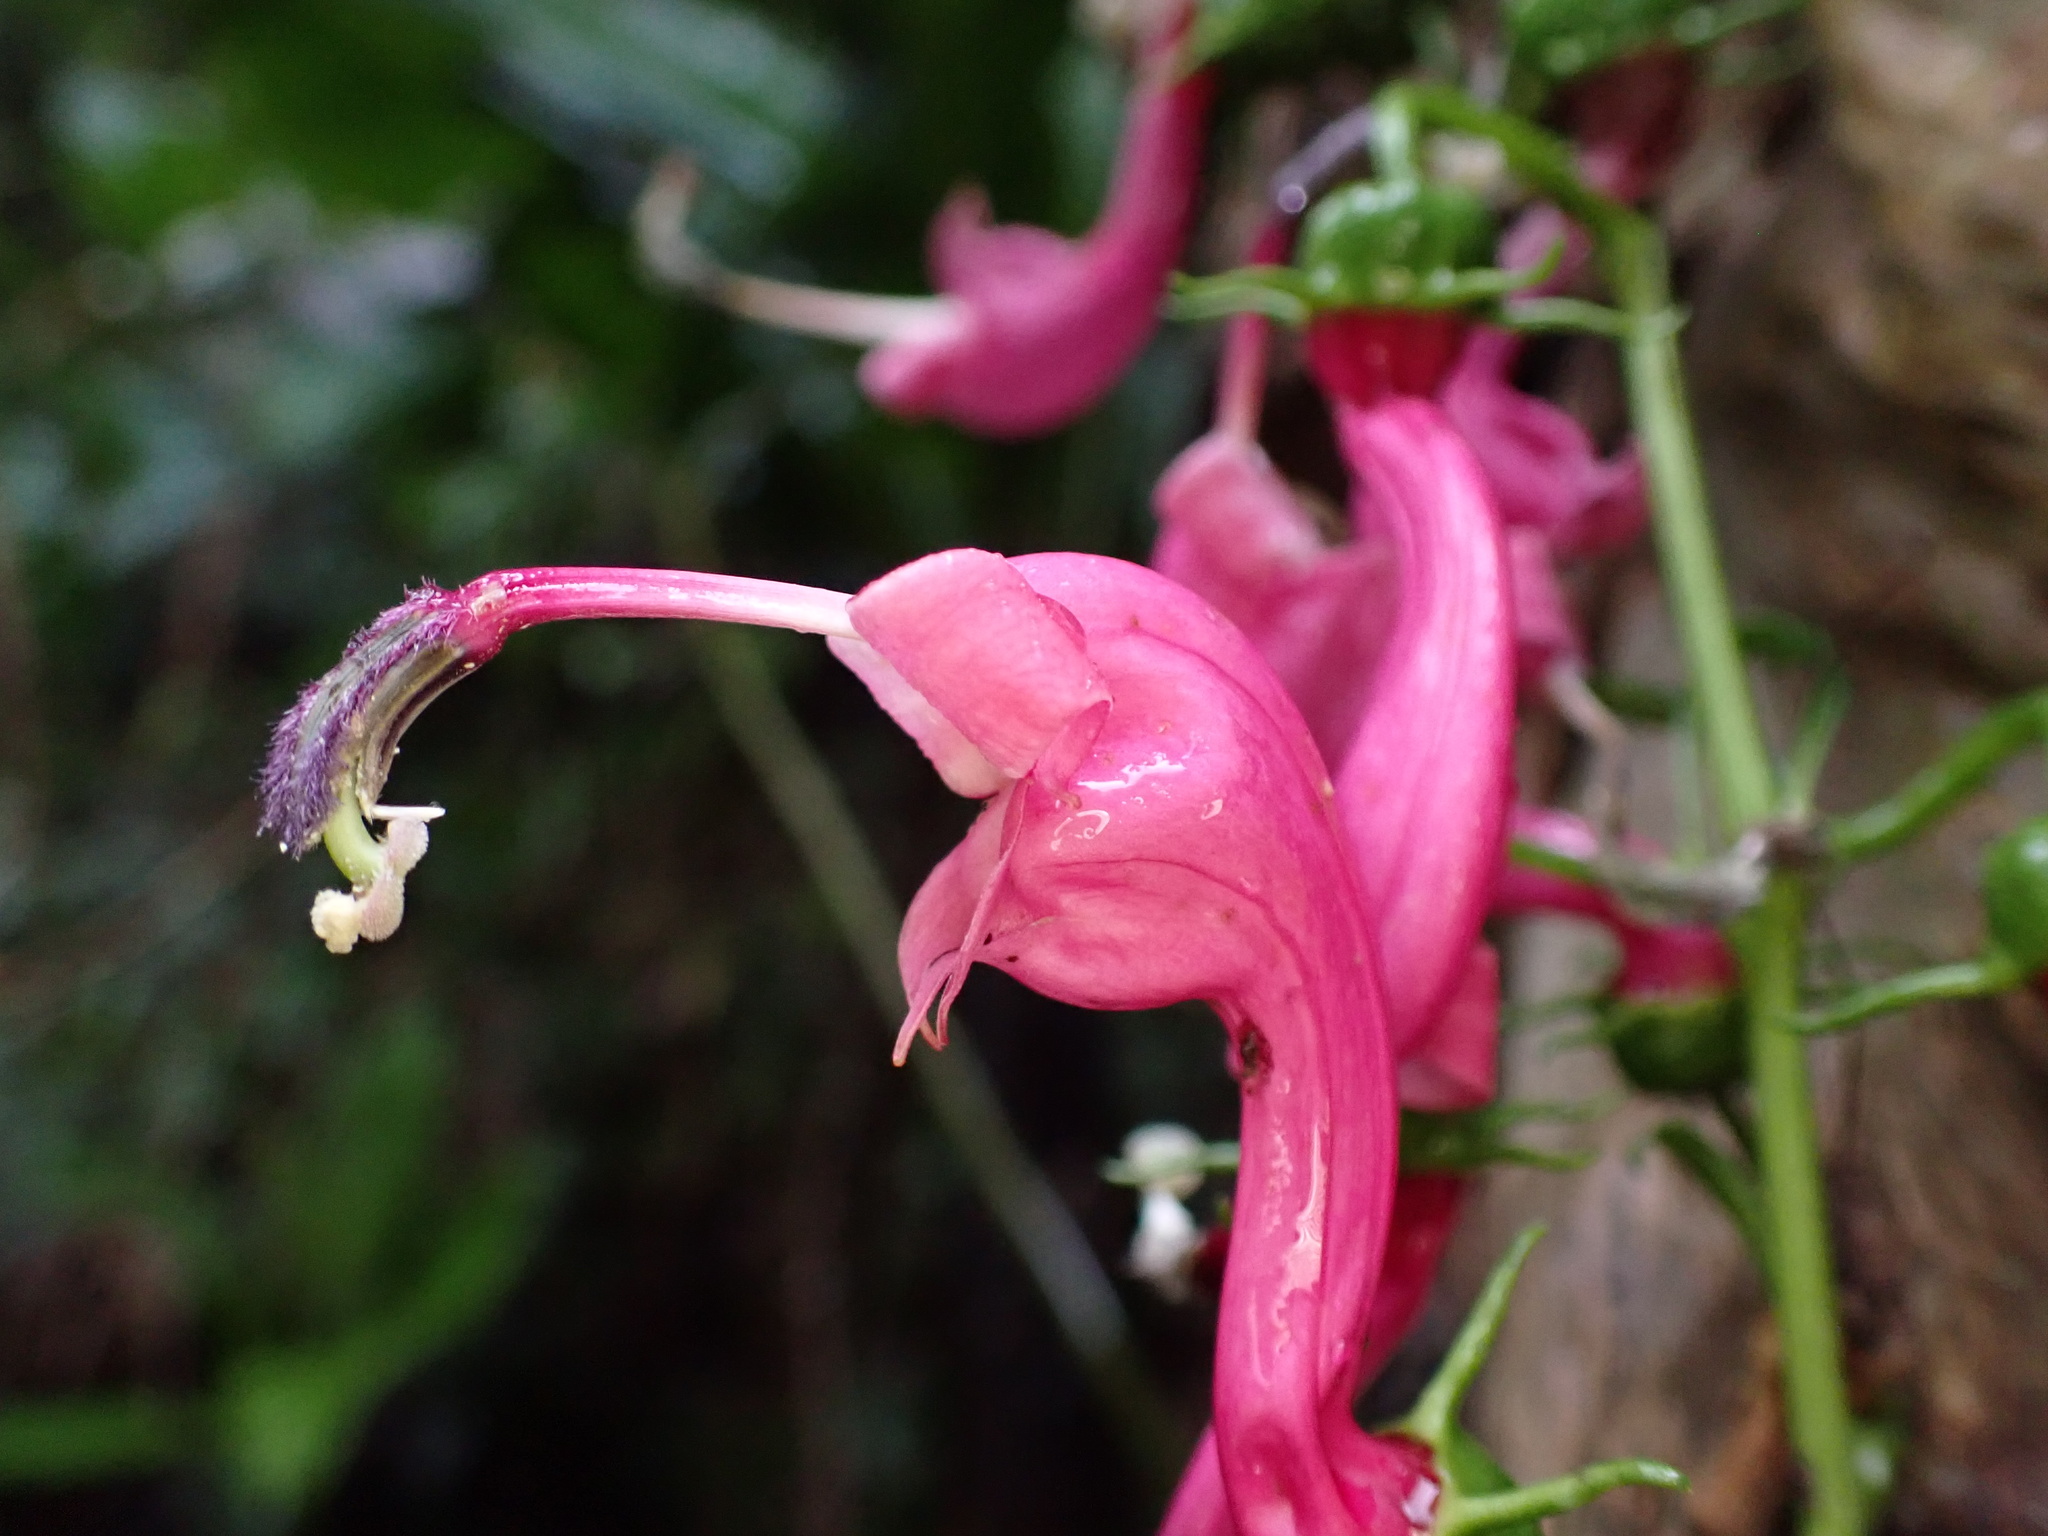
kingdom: Plantae
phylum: Tracheophyta
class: Magnoliopsida
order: Asterales
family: Campanulaceae
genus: Centropogon
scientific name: Centropogon urubambae
